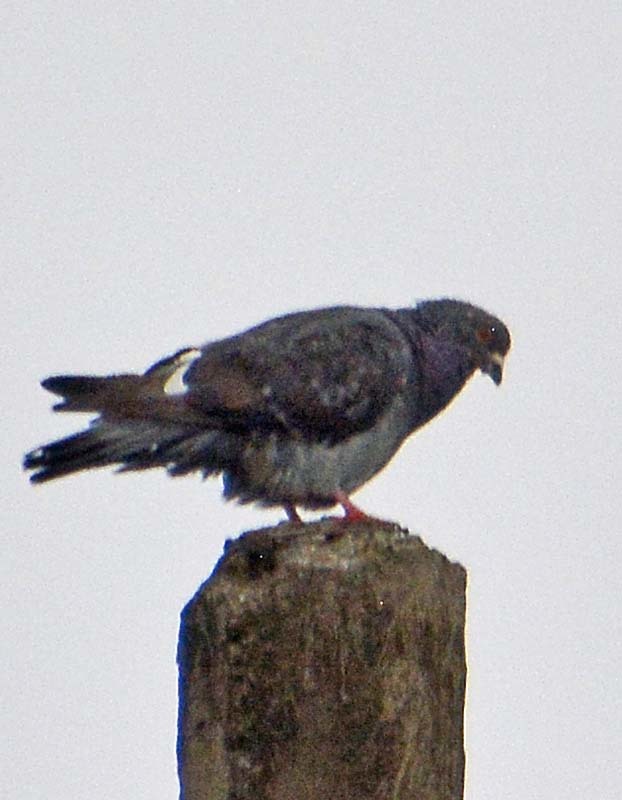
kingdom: Animalia
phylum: Chordata
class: Aves
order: Columbiformes
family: Columbidae
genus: Columba
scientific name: Columba livia
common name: Rock pigeon
